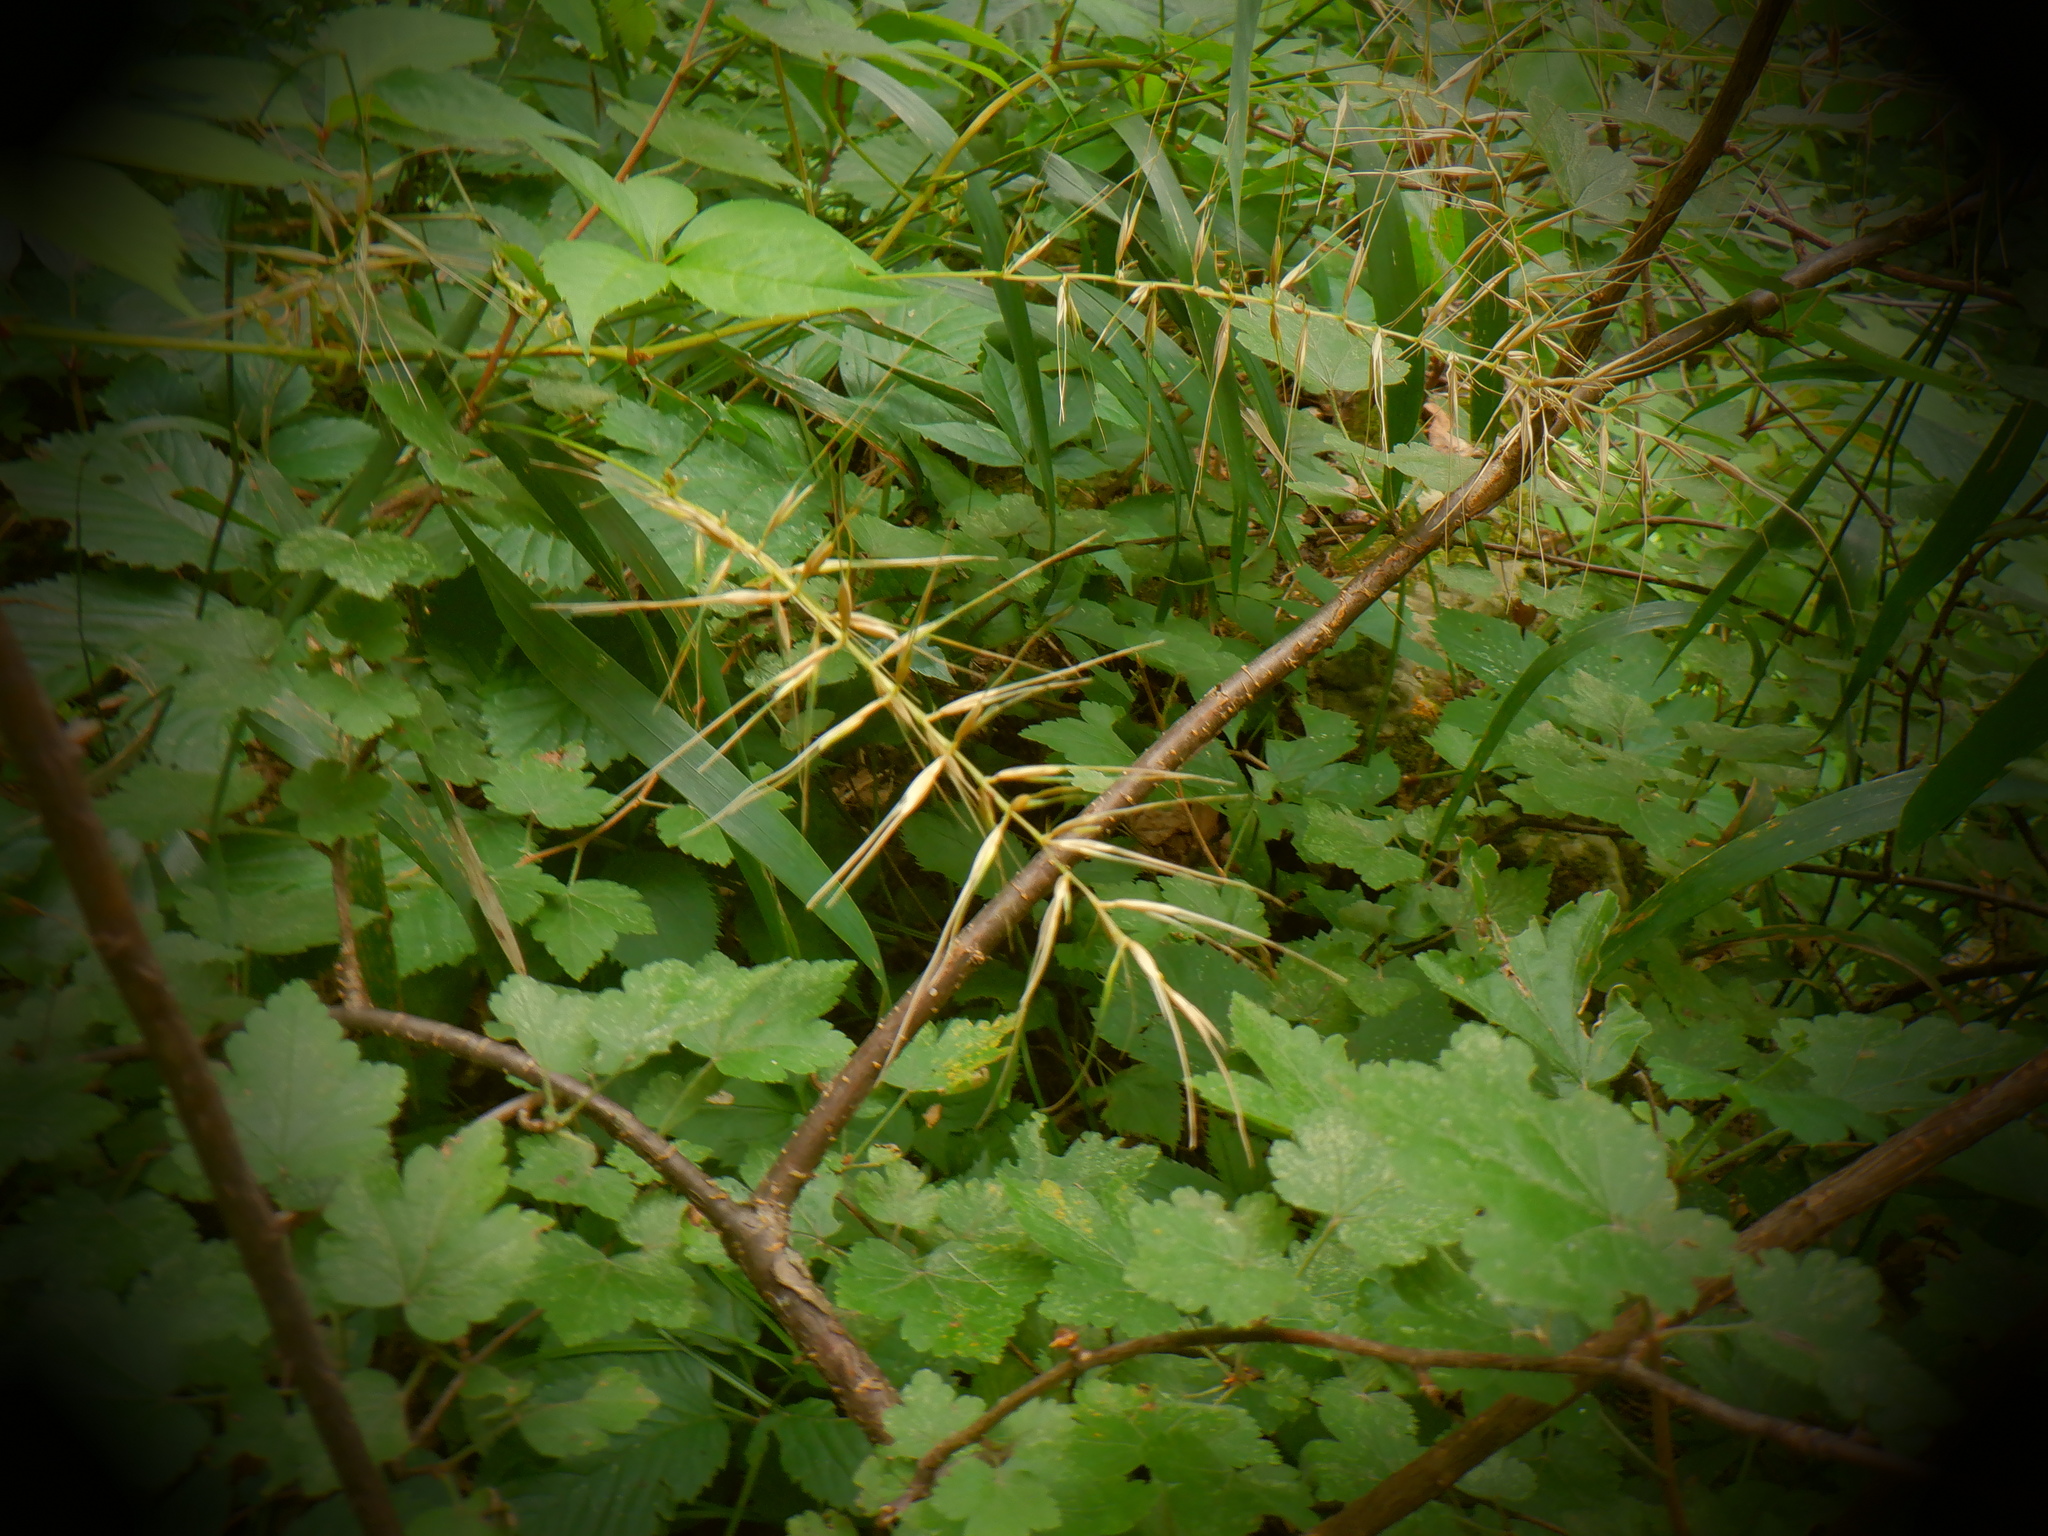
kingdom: Plantae
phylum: Tracheophyta
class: Liliopsida
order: Poales
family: Poaceae
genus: Elymus
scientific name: Elymus hystrix
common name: Bottlebrush grass
